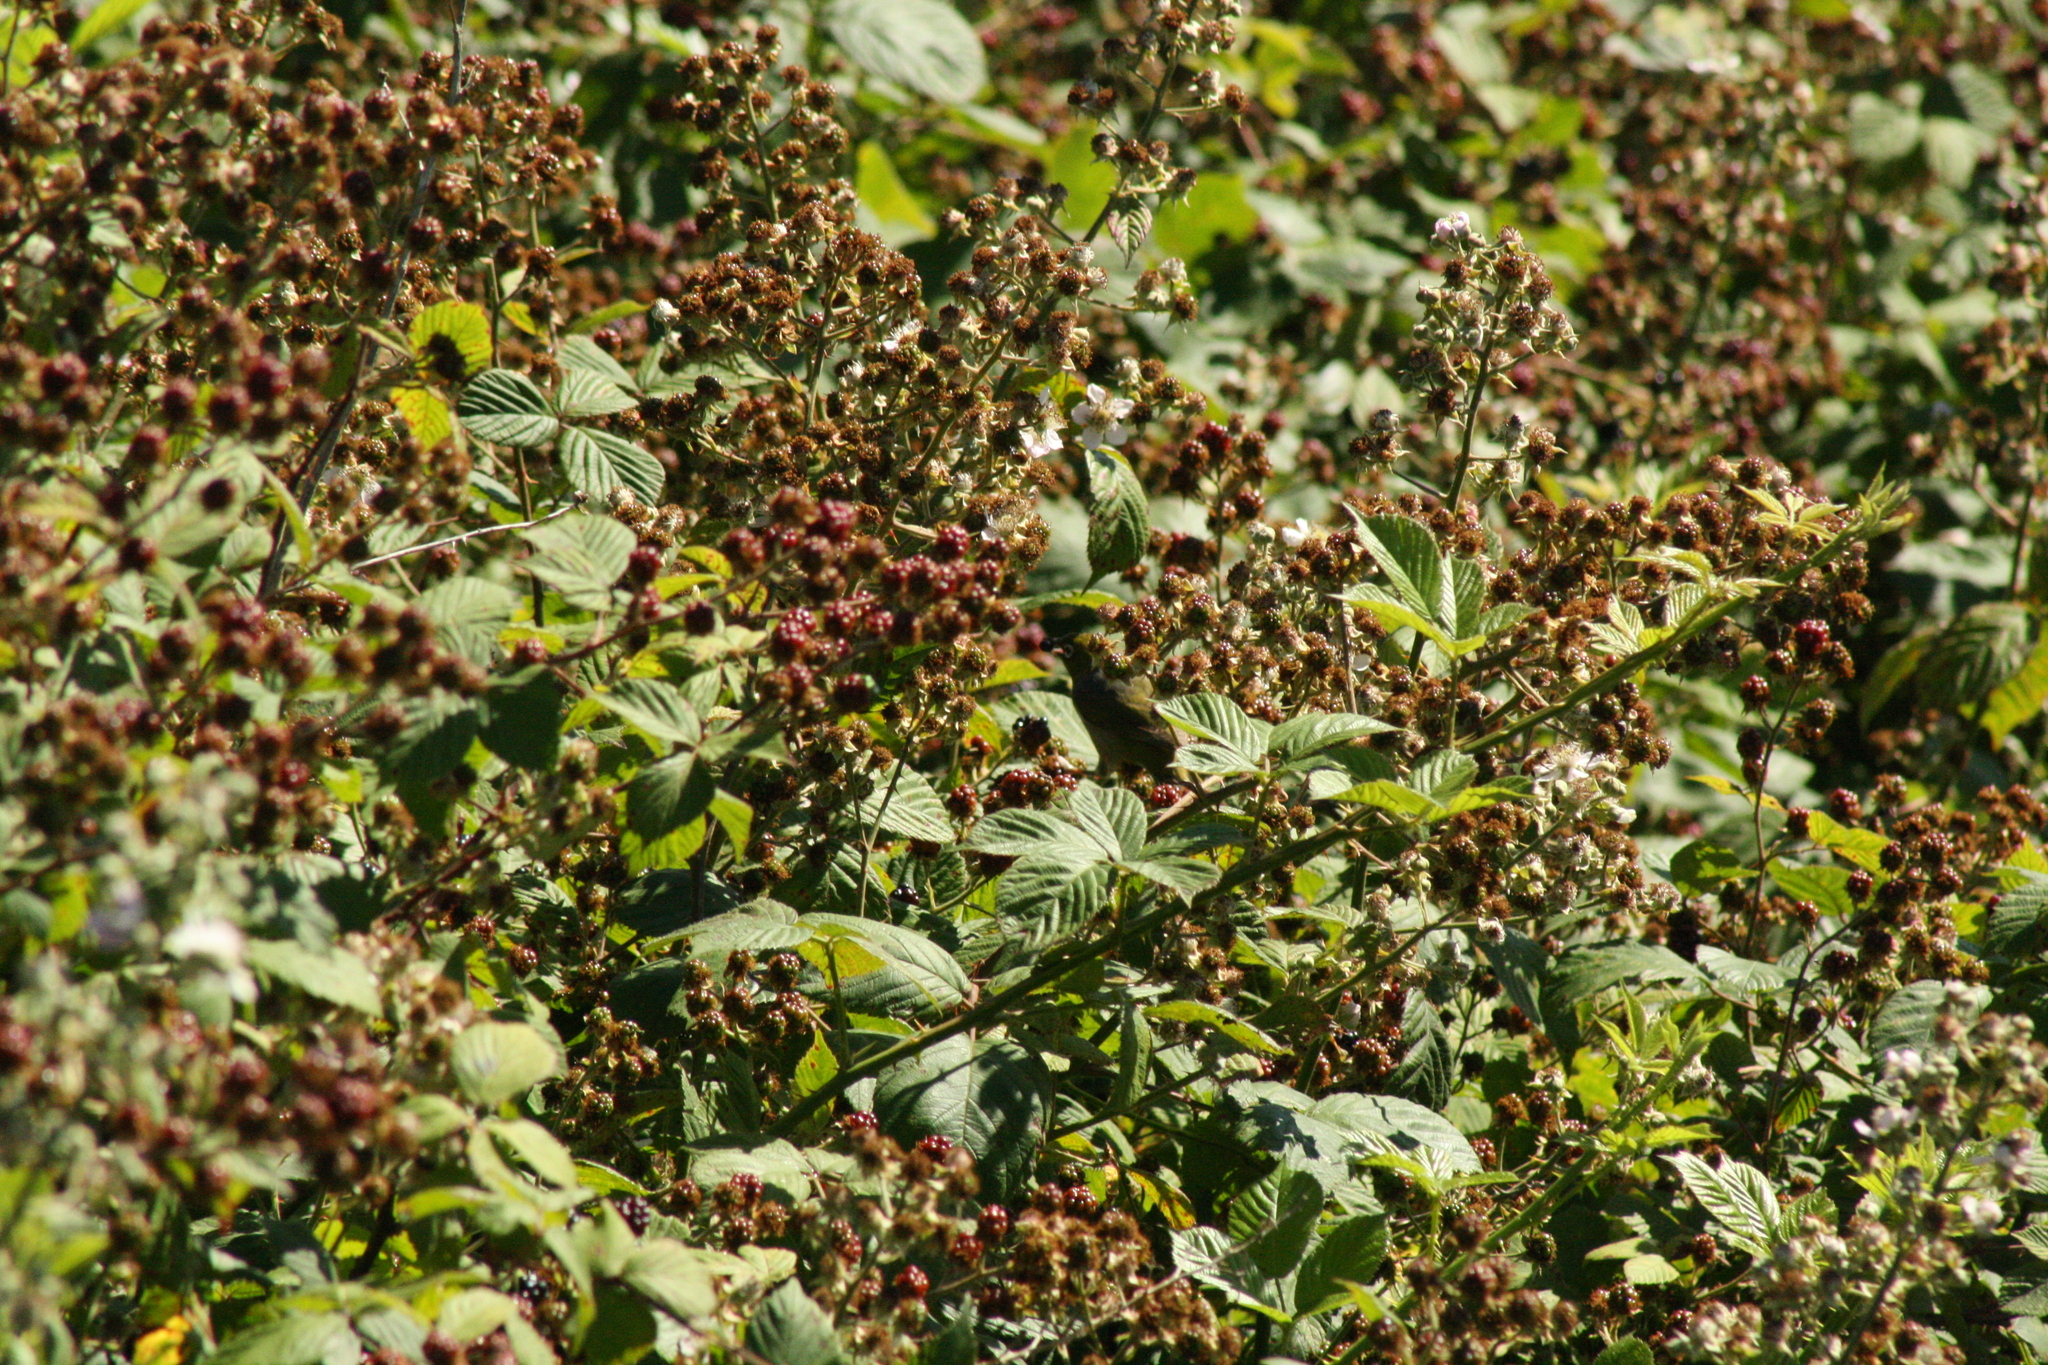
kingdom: Animalia
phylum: Chordata
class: Aves
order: Passeriformes
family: Zosteropidae
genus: Zosterops
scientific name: Zosterops lateralis
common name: Silvereye
